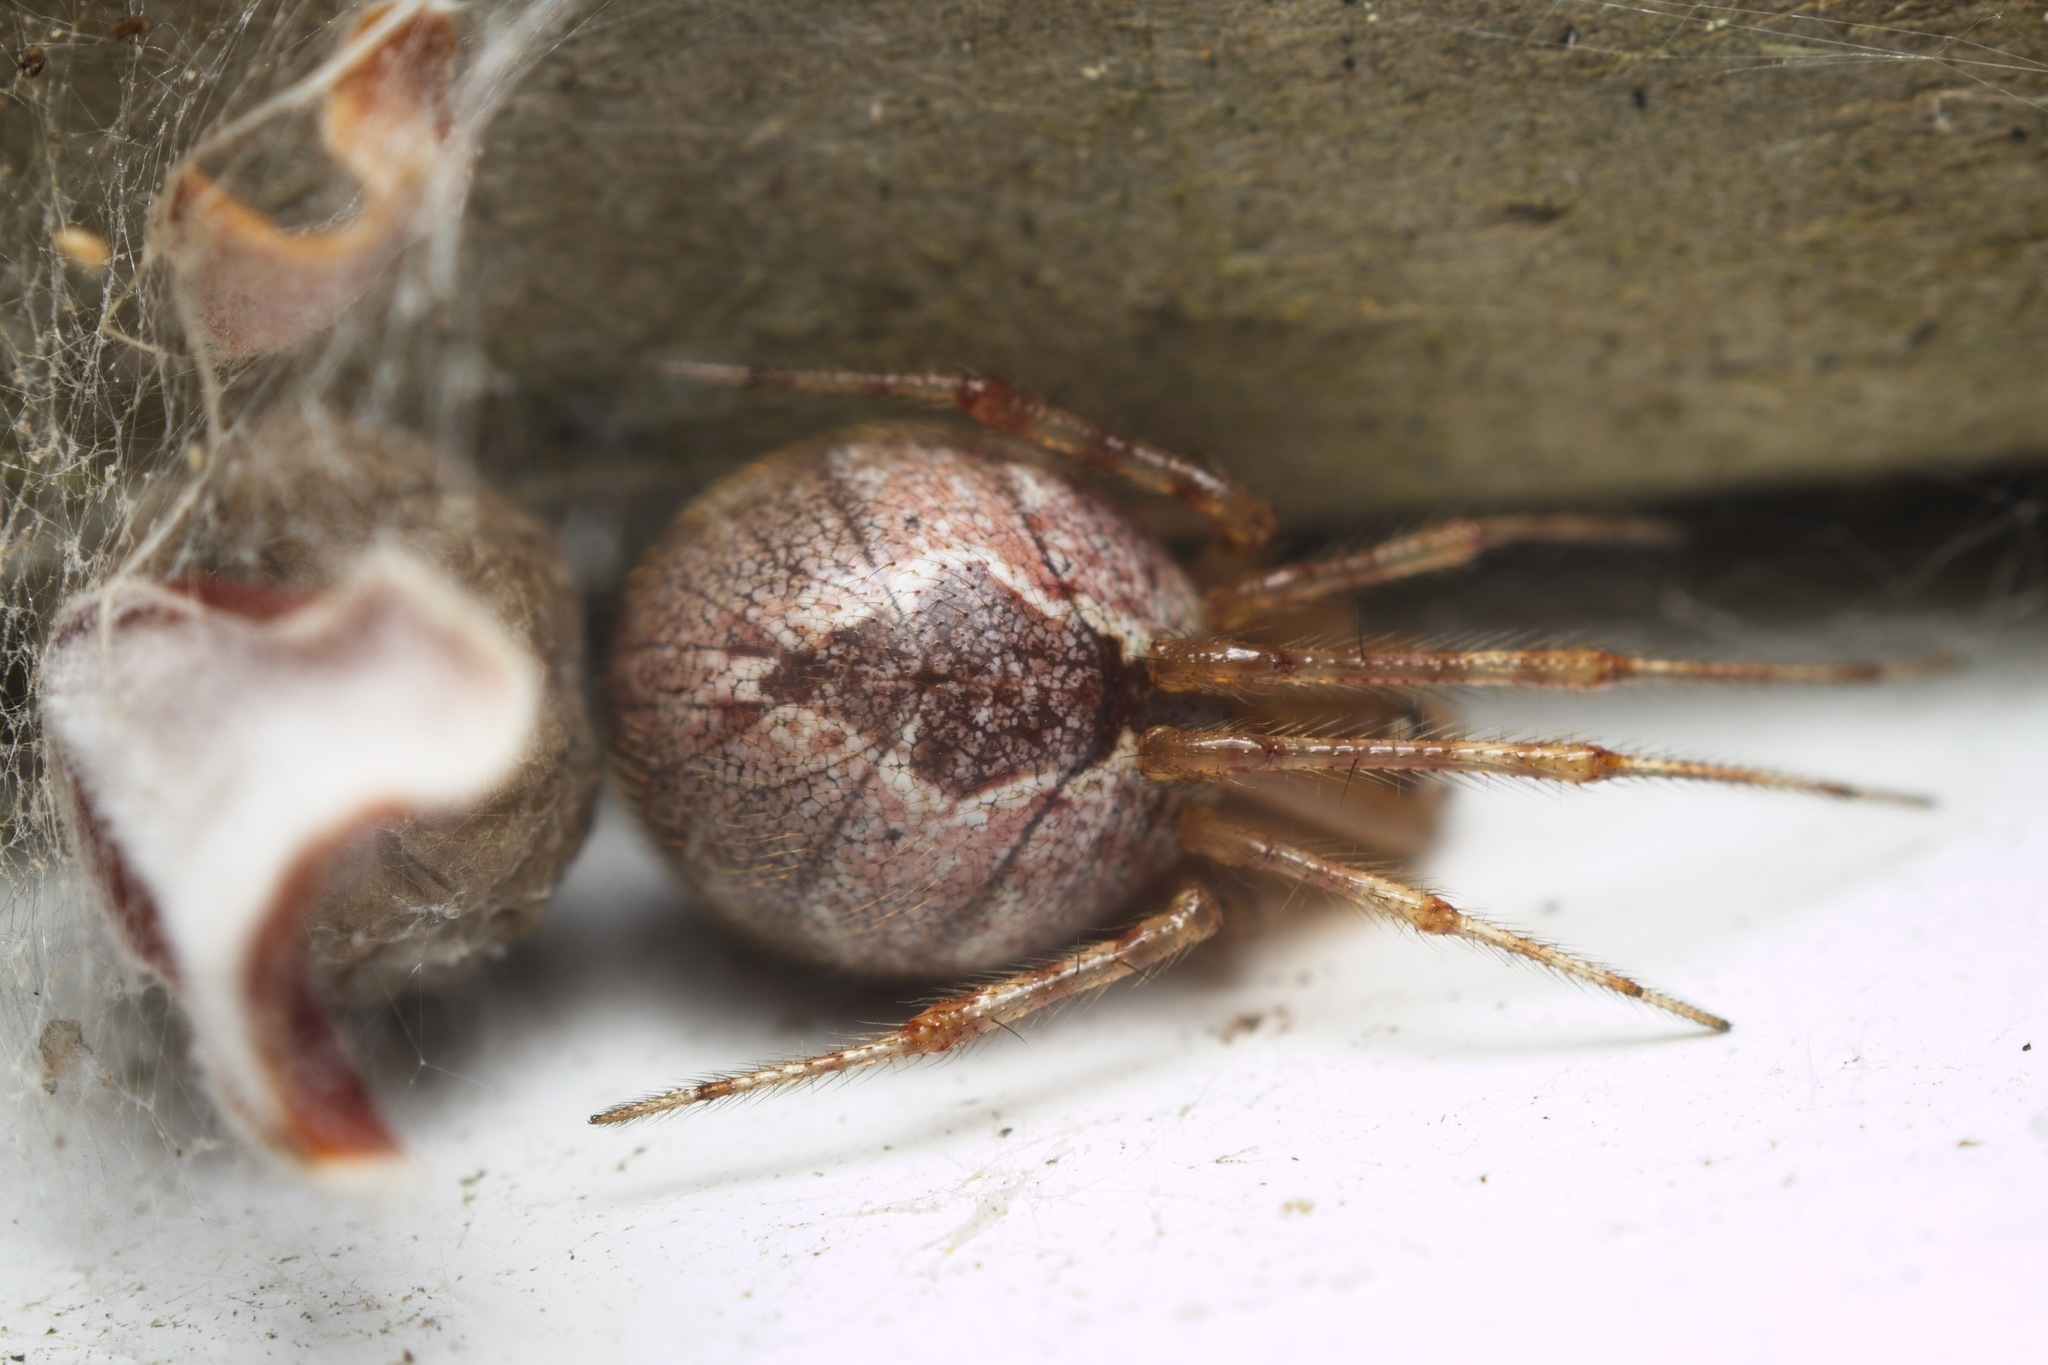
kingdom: Animalia
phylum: Arthropoda
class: Arachnida
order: Araneae
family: Theridiidae
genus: Cryptachaea
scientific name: Cryptachaea veruculata
